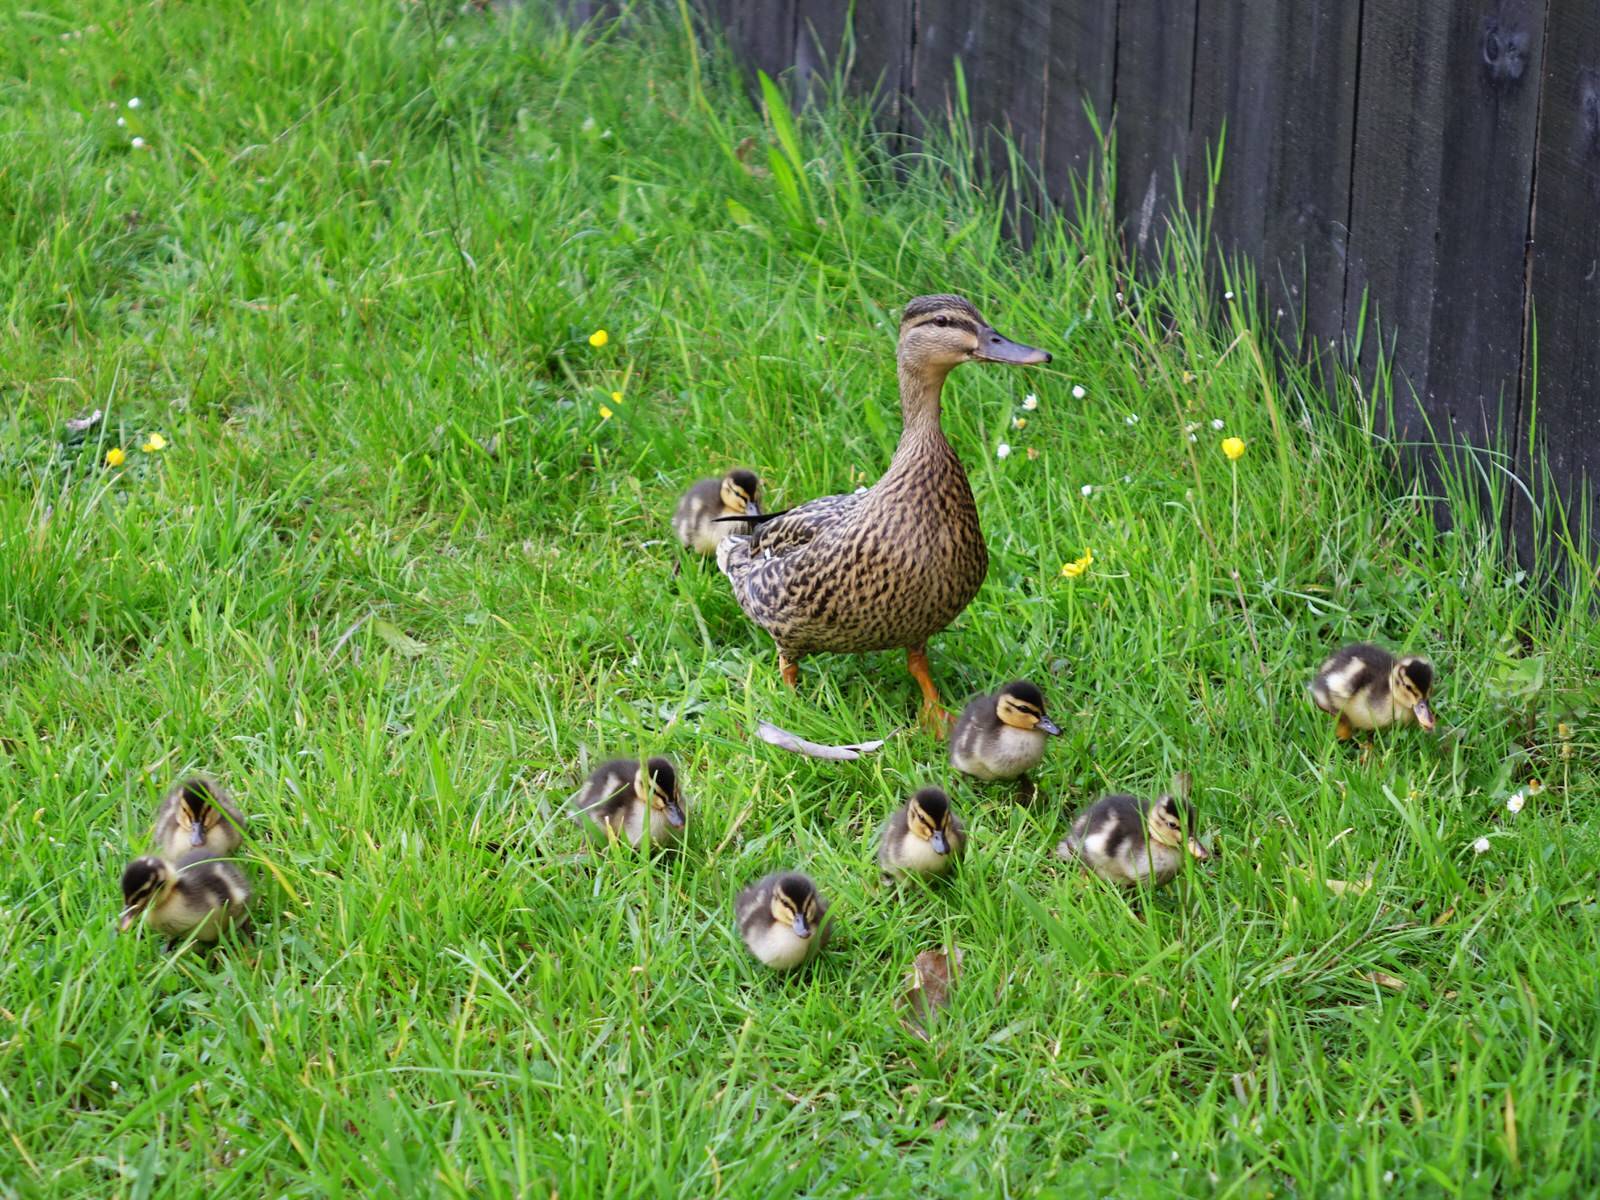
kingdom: Animalia
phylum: Chordata
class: Aves
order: Anseriformes
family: Anatidae
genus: Anas
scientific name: Anas platyrhynchos
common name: Mallard
